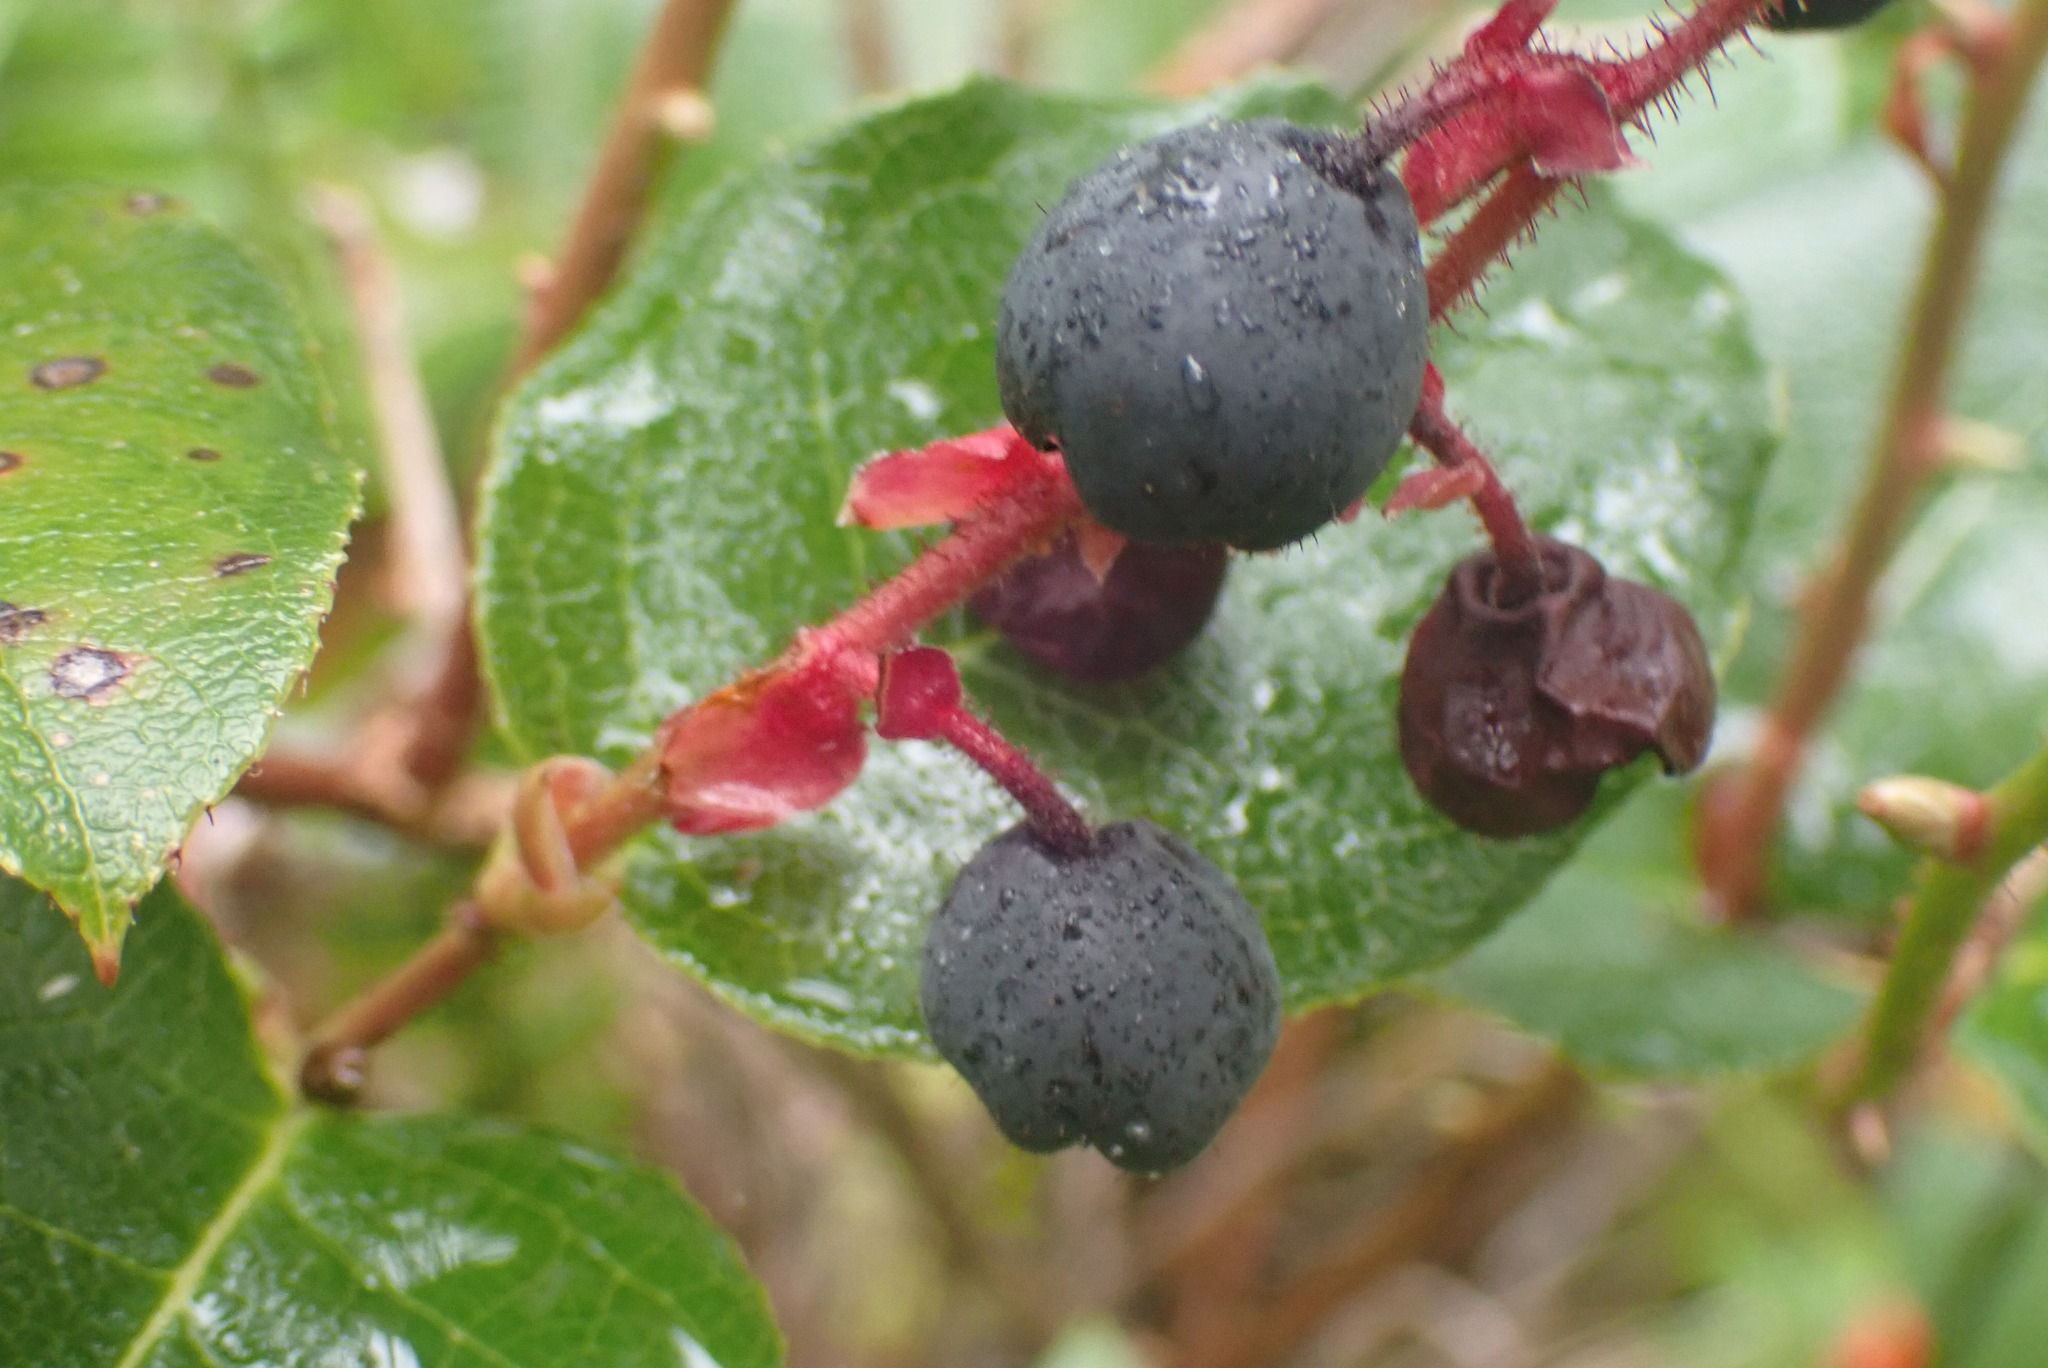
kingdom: Plantae
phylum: Tracheophyta
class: Magnoliopsida
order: Ericales
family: Ericaceae
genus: Gaultheria
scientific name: Gaultheria shallon
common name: Shallon
